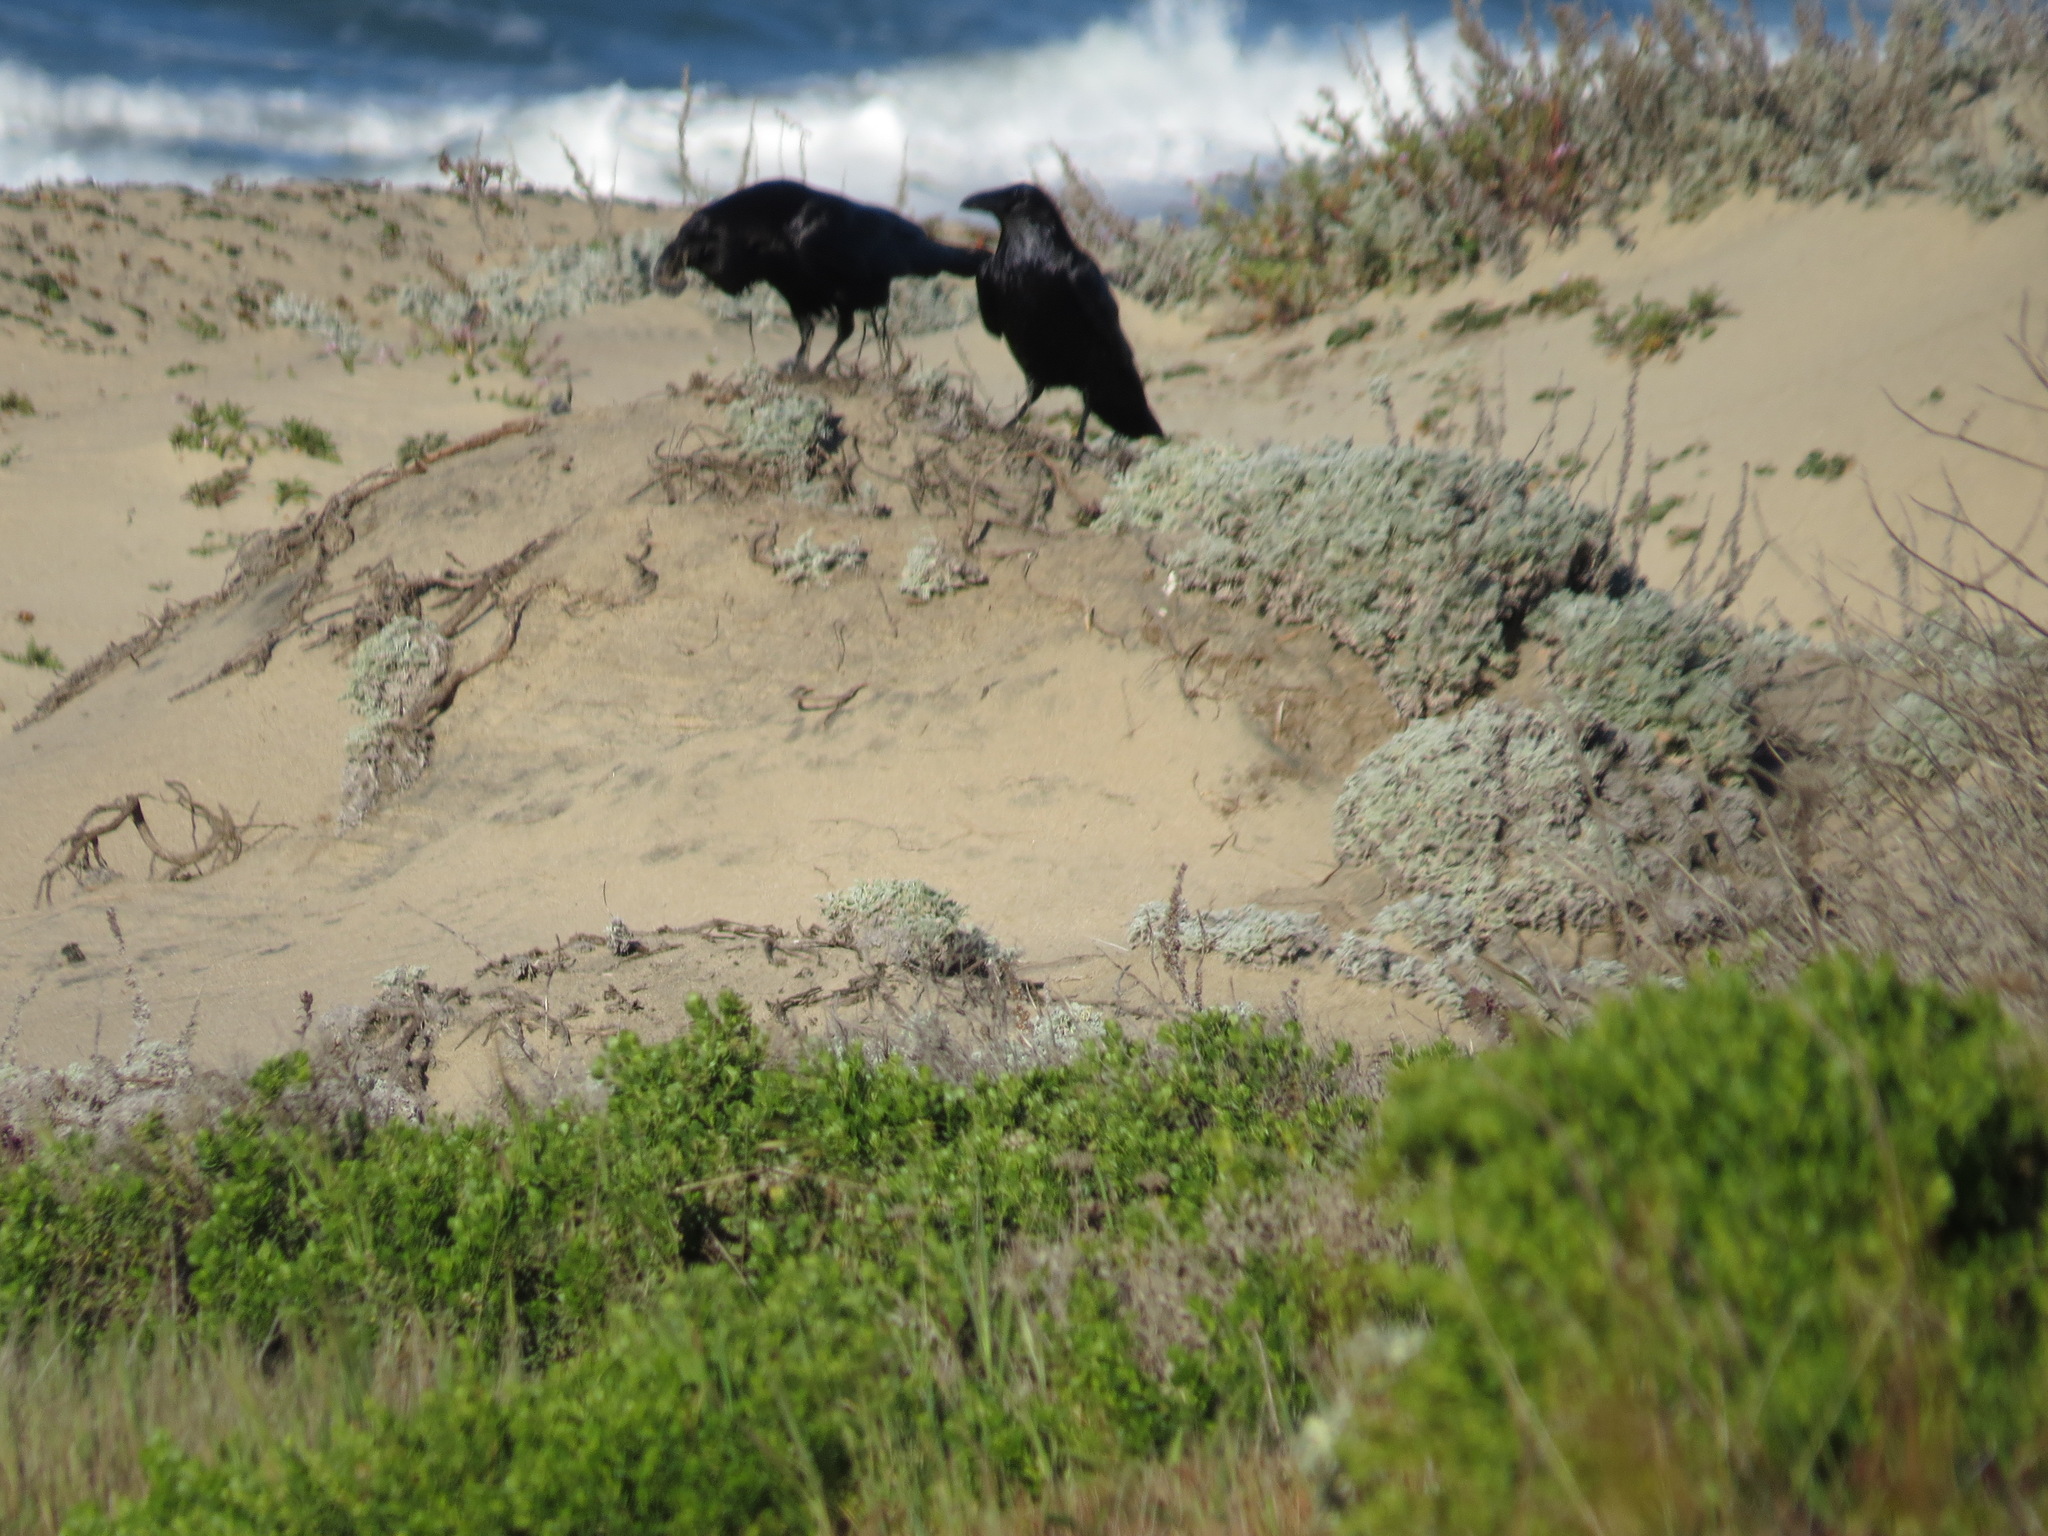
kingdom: Animalia
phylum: Chordata
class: Aves
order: Passeriformes
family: Corvidae
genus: Corvus
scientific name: Corvus corax
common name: Common raven
